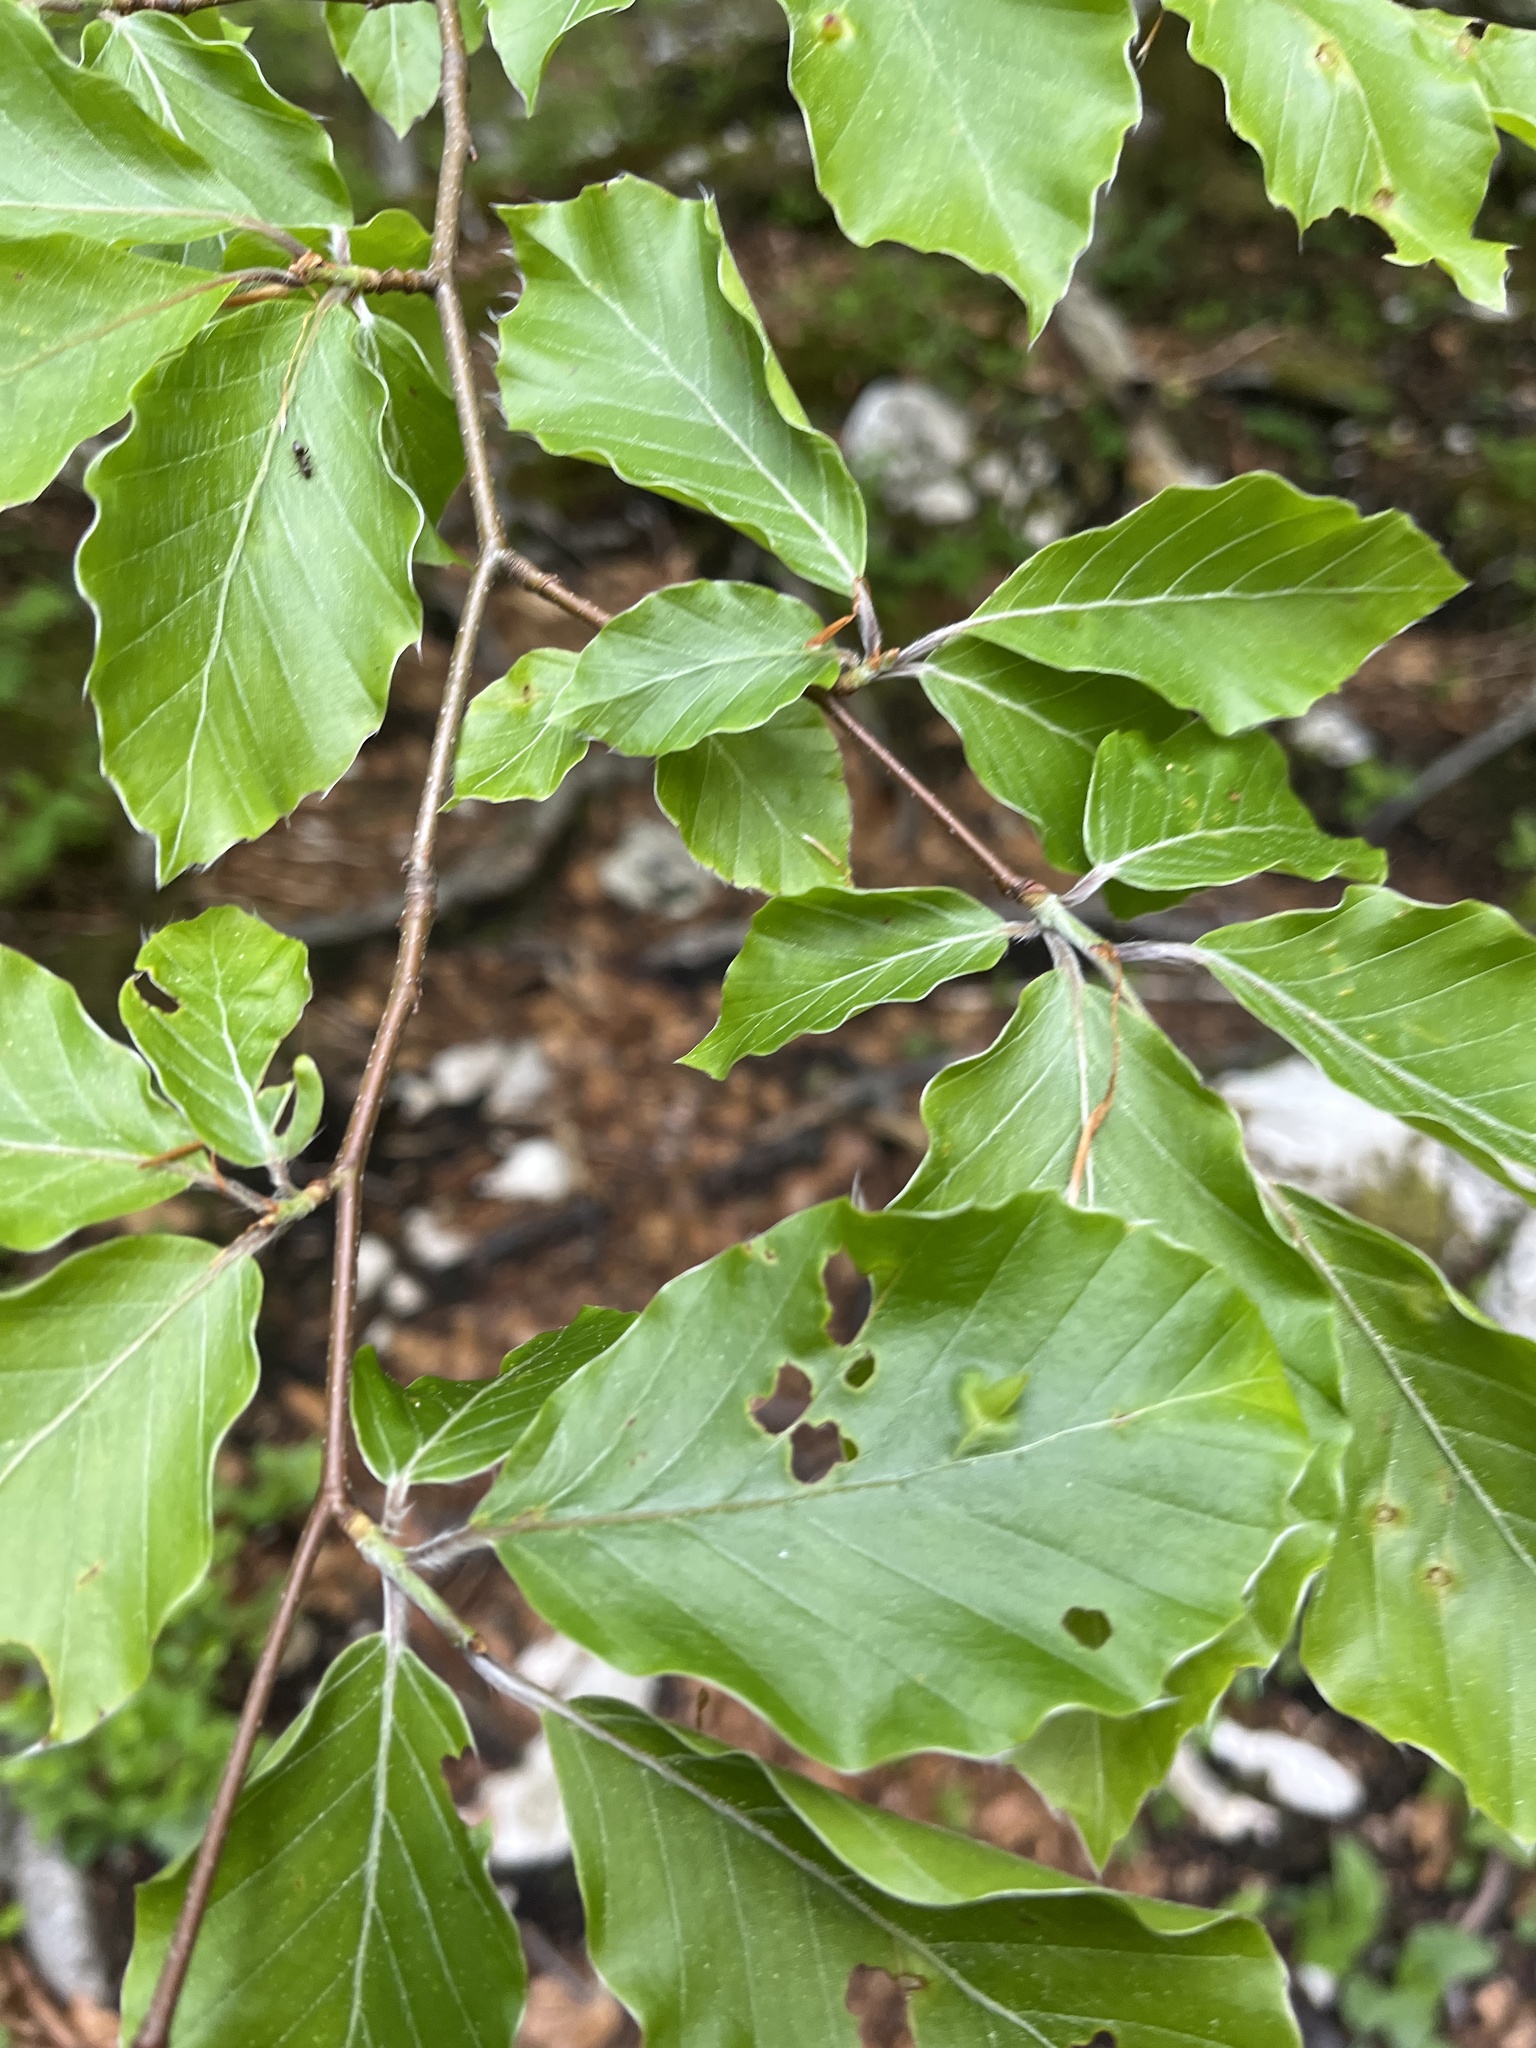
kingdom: Plantae
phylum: Tracheophyta
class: Magnoliopsida
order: Fagales
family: Fagaceae
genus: Fagus
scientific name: Fagus sylvatica
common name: Beech
